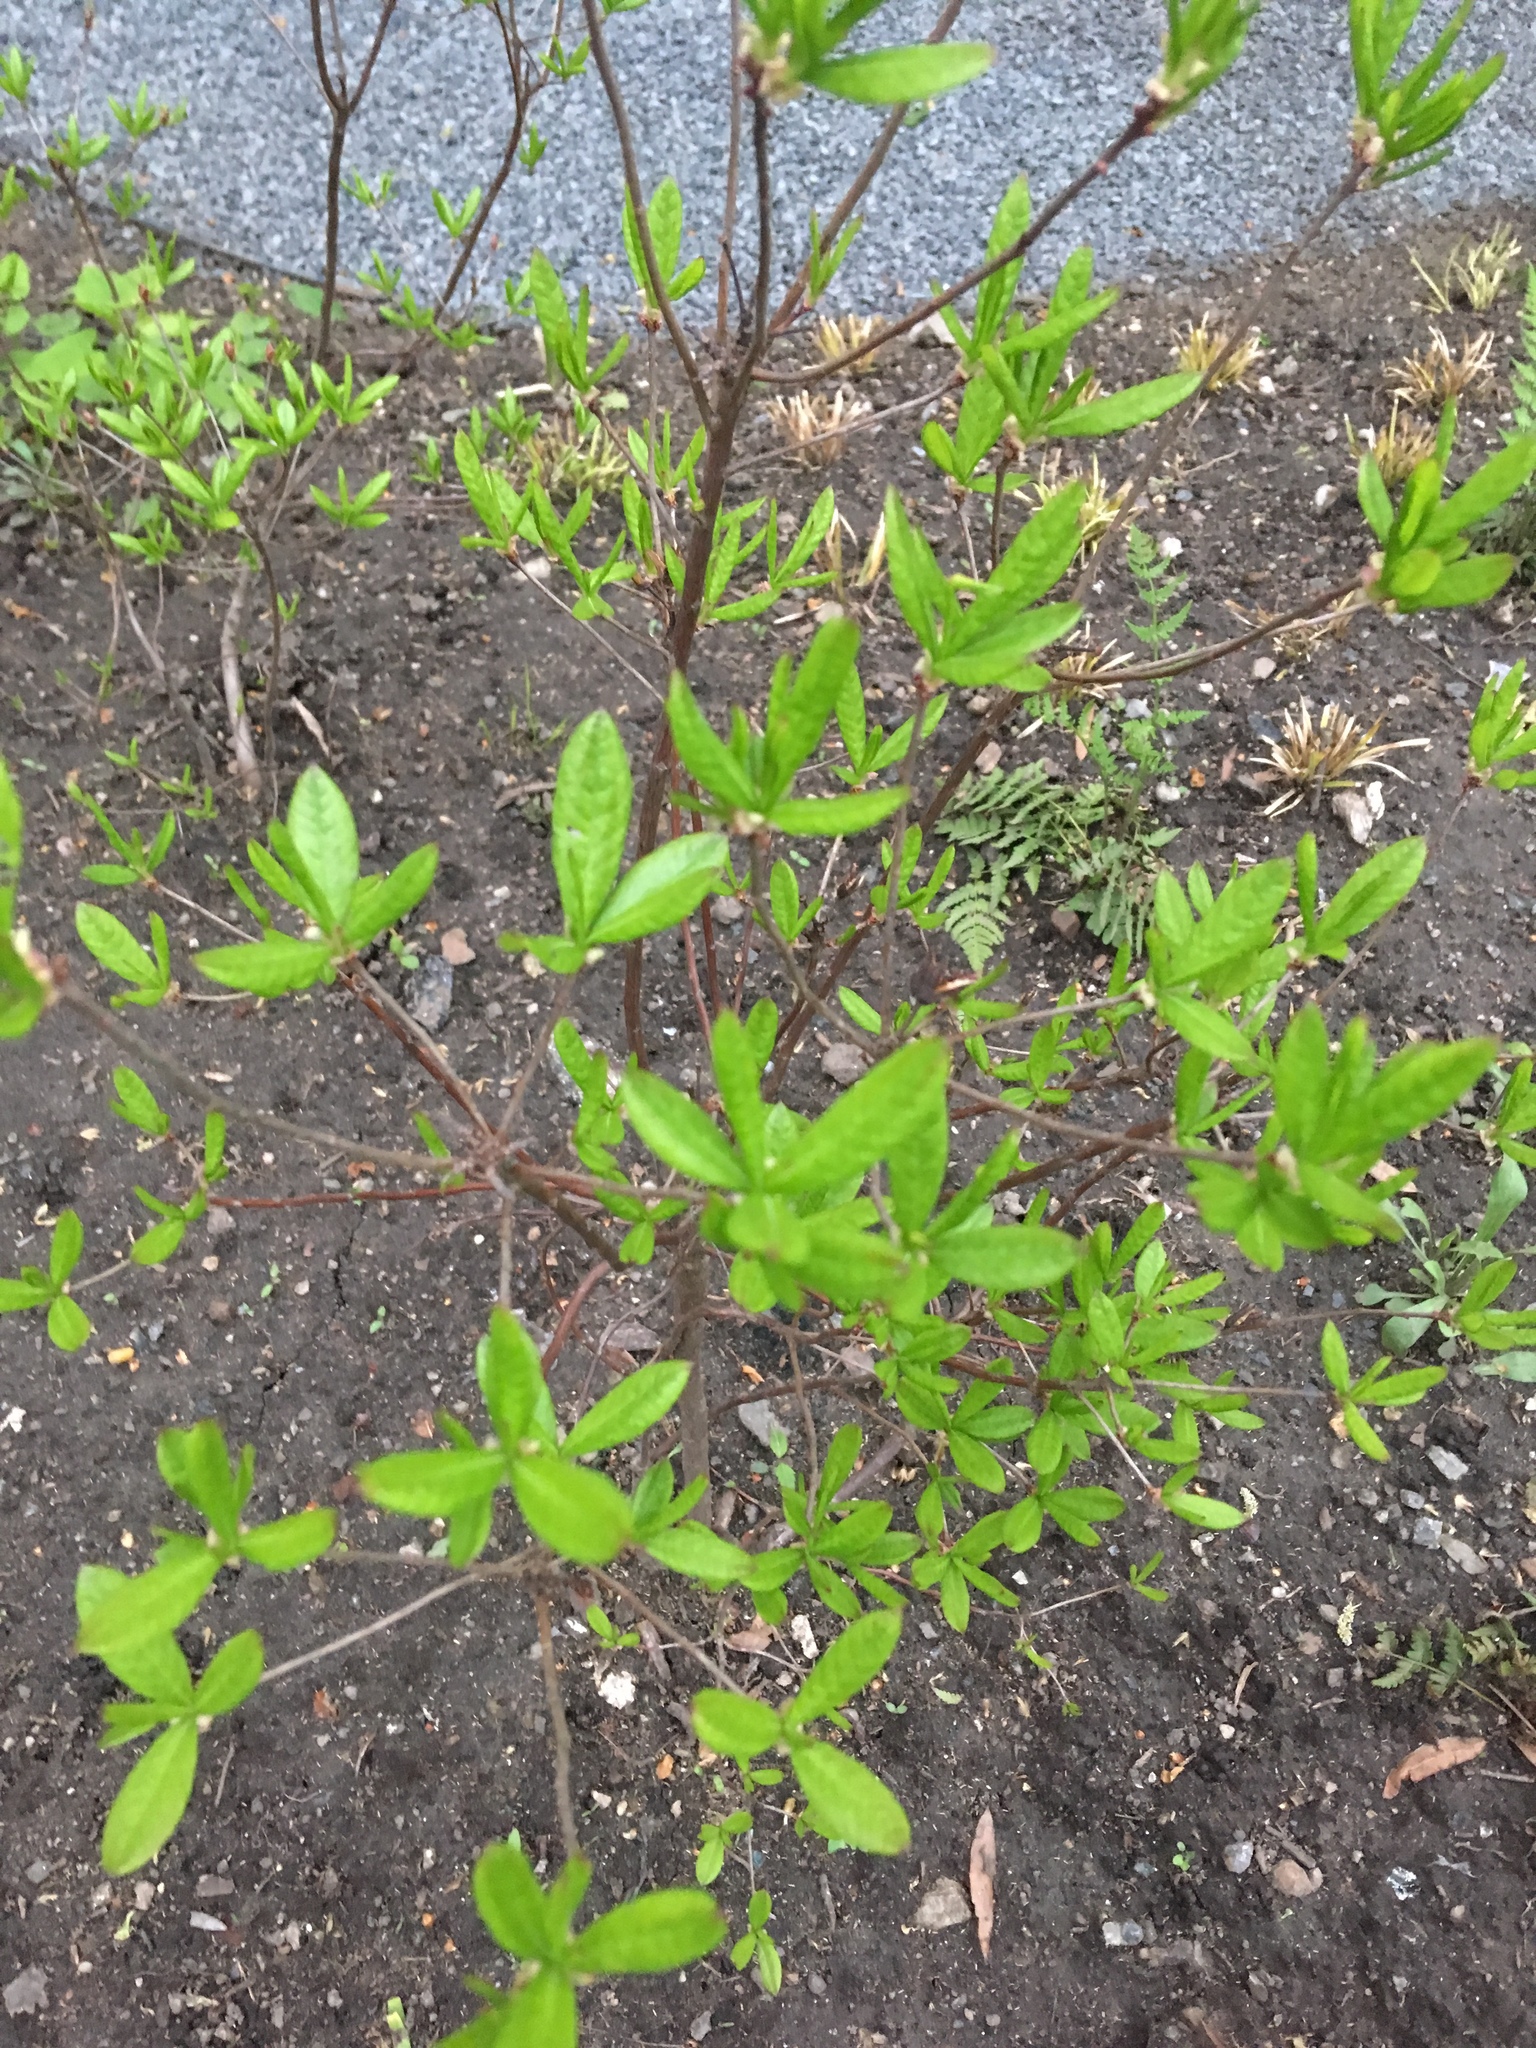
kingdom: Plantae
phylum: Tracheophyta
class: Magnoliopsida
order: Ericales
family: Ericaceae
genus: Rhododendron
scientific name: Rhododendron viscosum
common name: Clammy azalea
